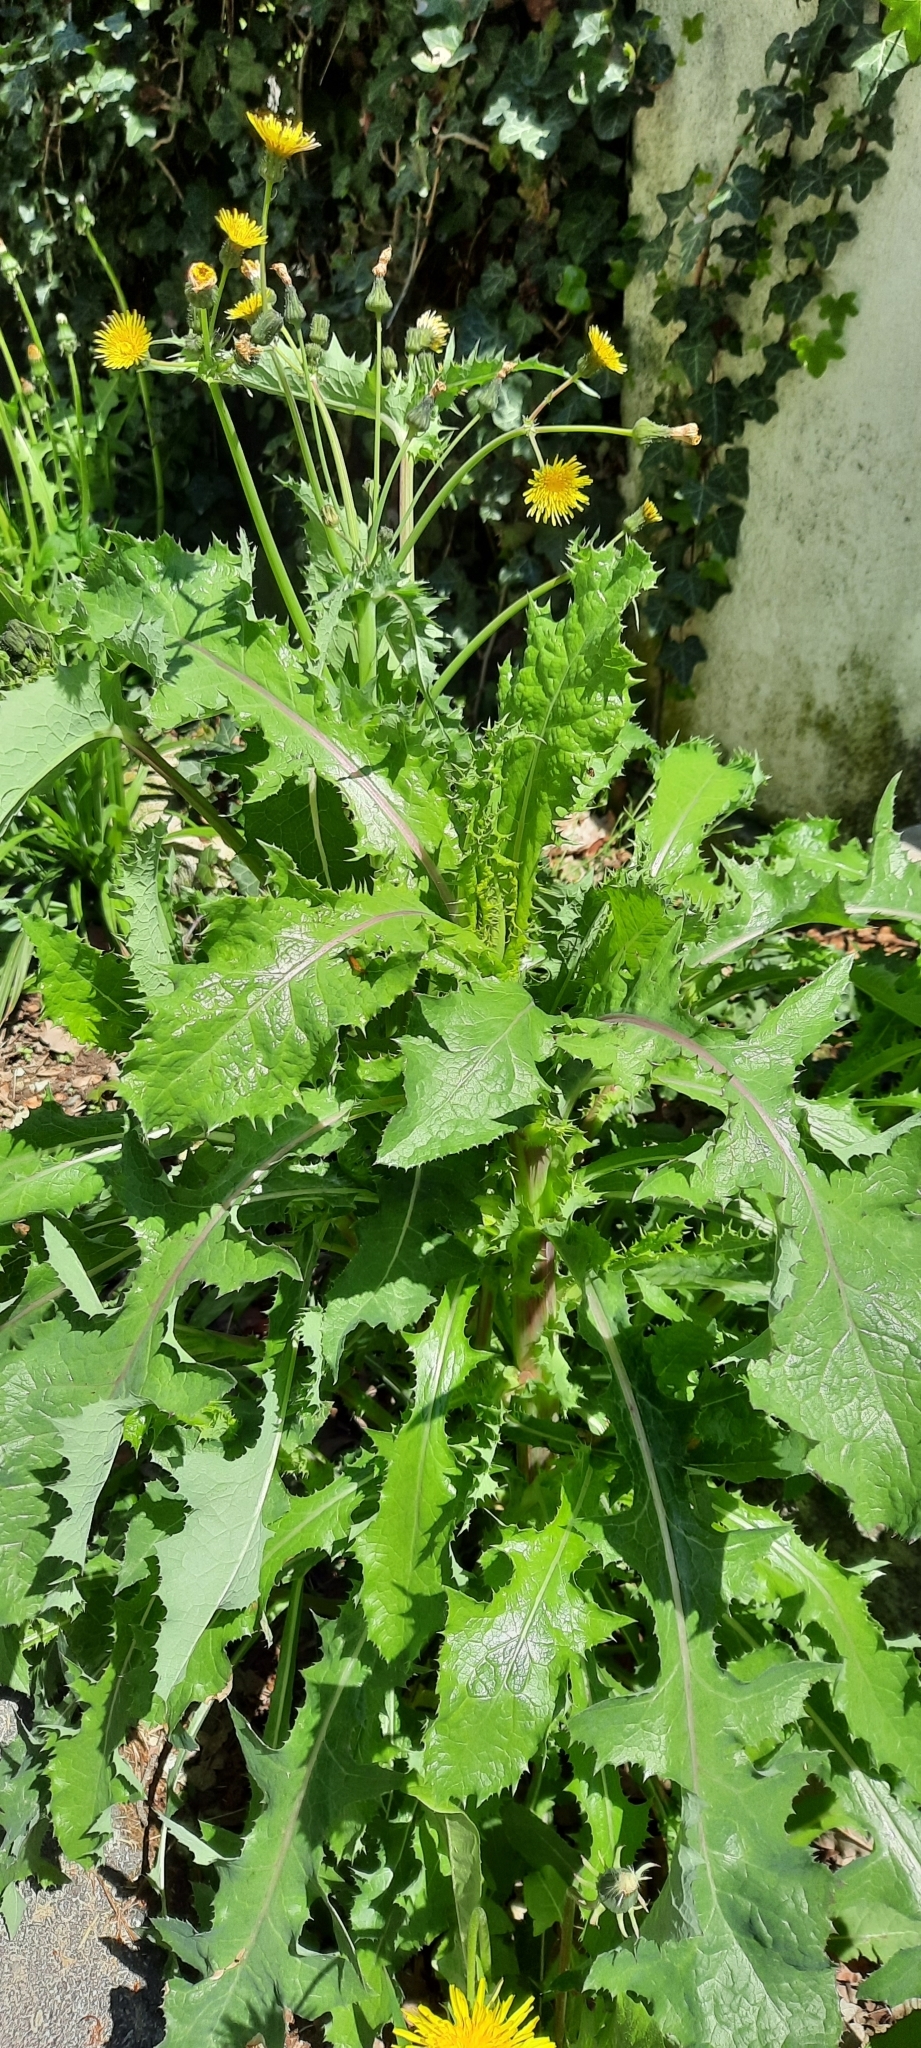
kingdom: Plantae
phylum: Tracheophyta
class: Magnoliopsida
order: Asterales
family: Asteraceae
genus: Sonchus
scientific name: Sonchus asper
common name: Prickly sow-thistle
